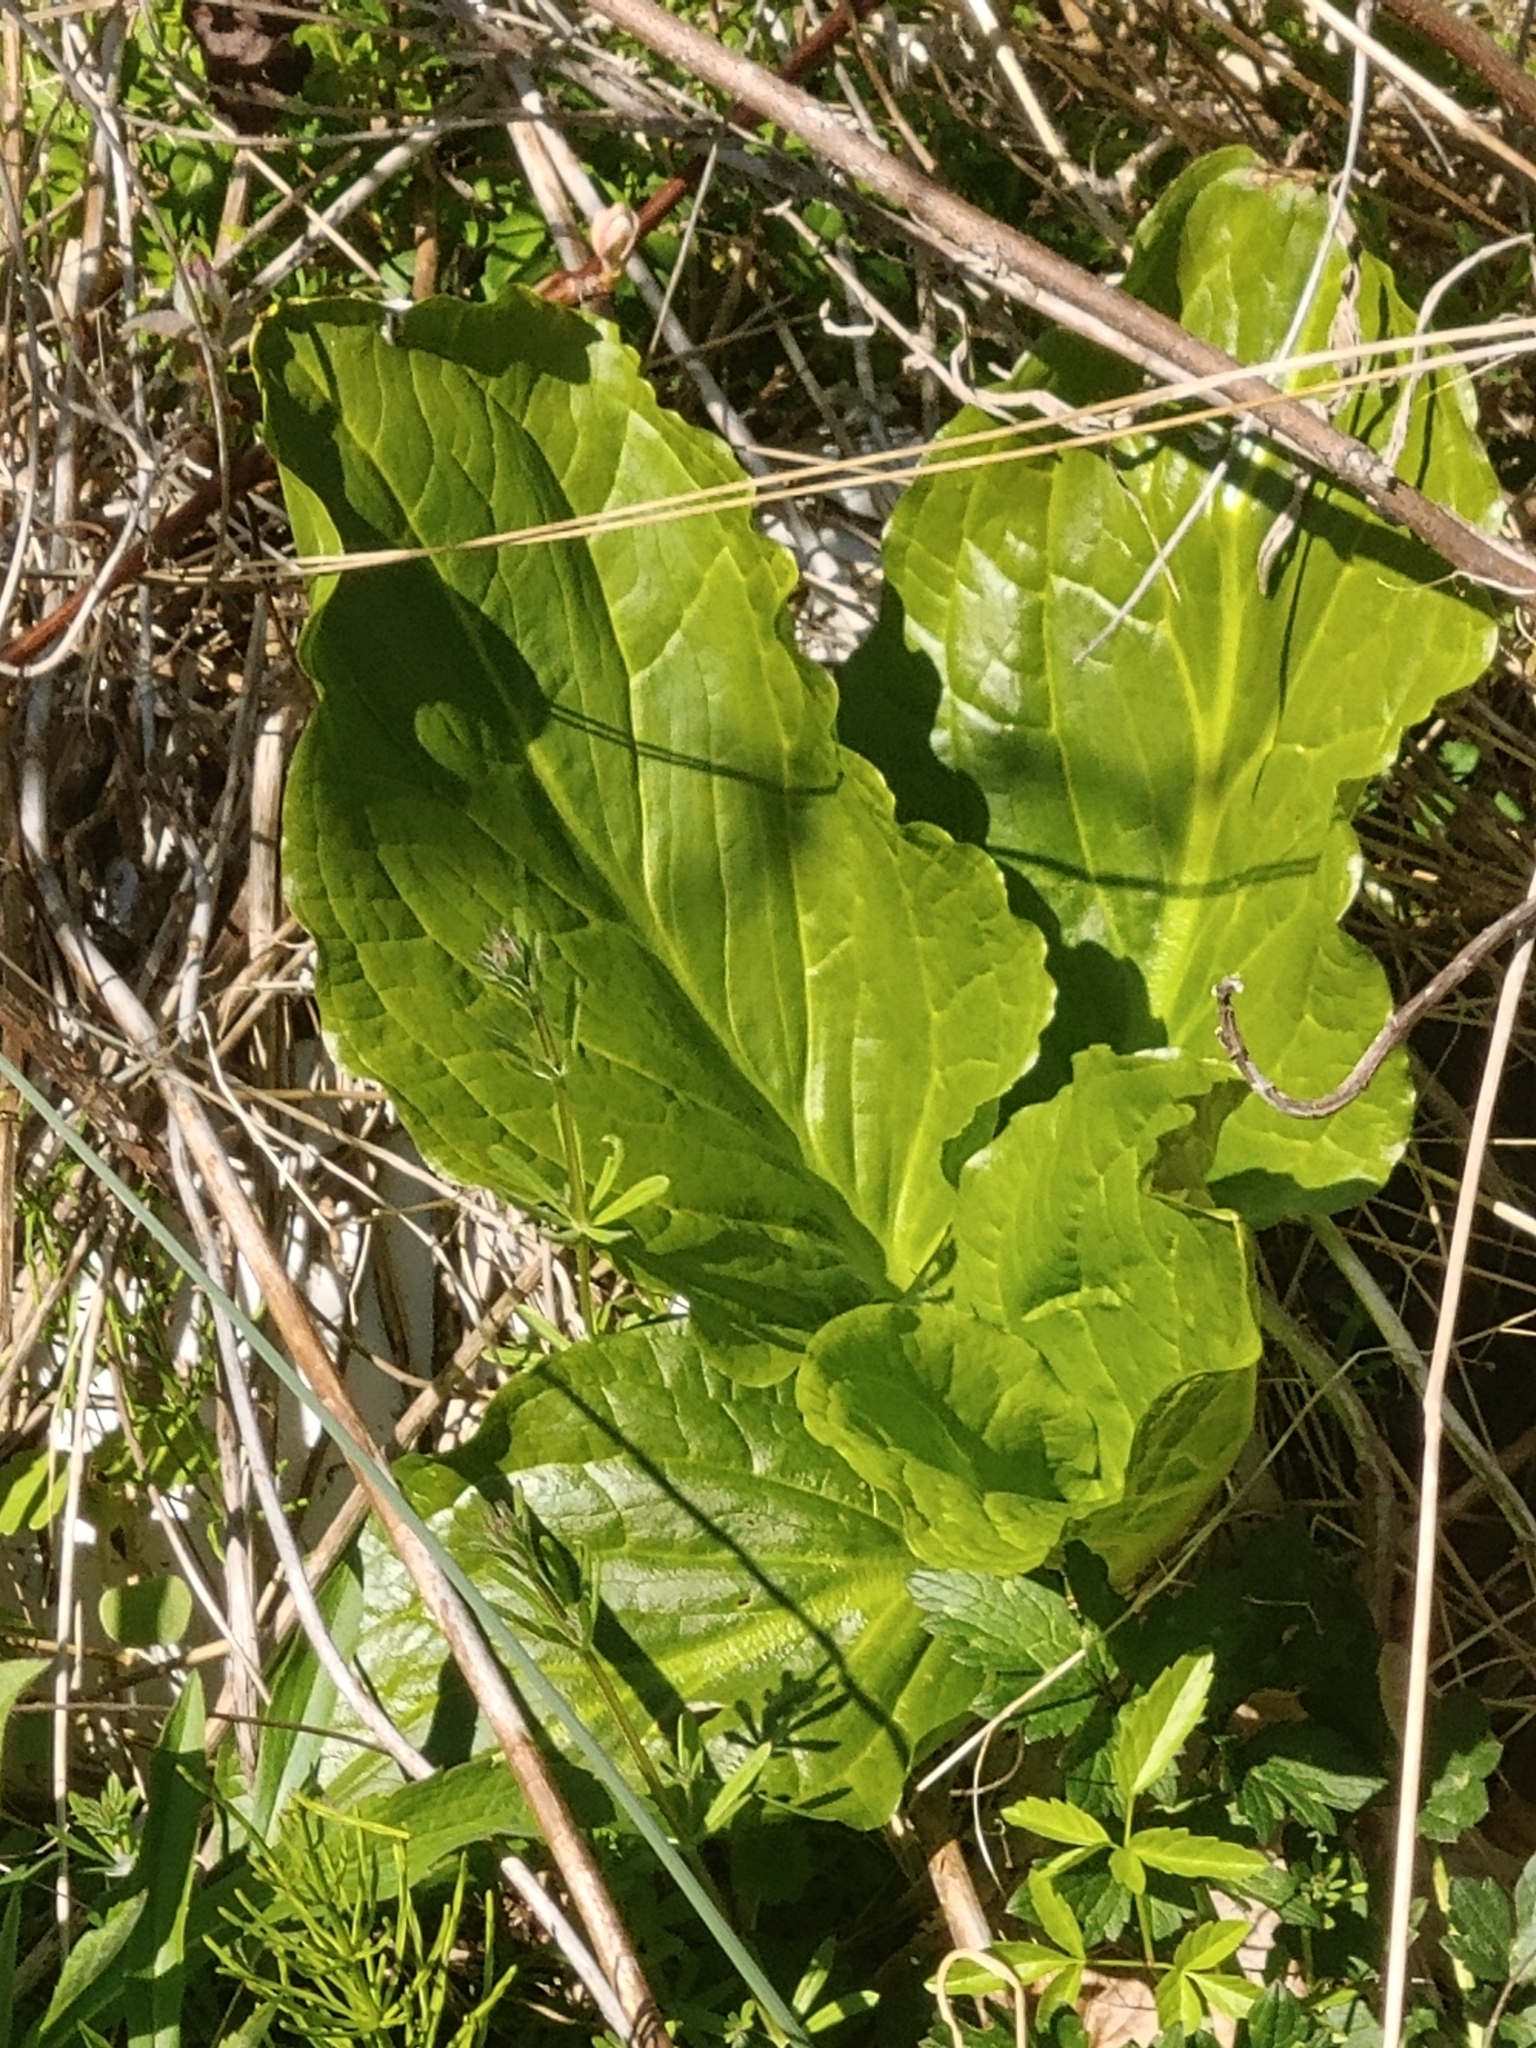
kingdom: Plantae
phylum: Tracheophyta
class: Liliopsida
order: Alismatales
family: Araceae
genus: Symplocarpus
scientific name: Symplocarpus foetidus
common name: Eastern skunk cabbage
